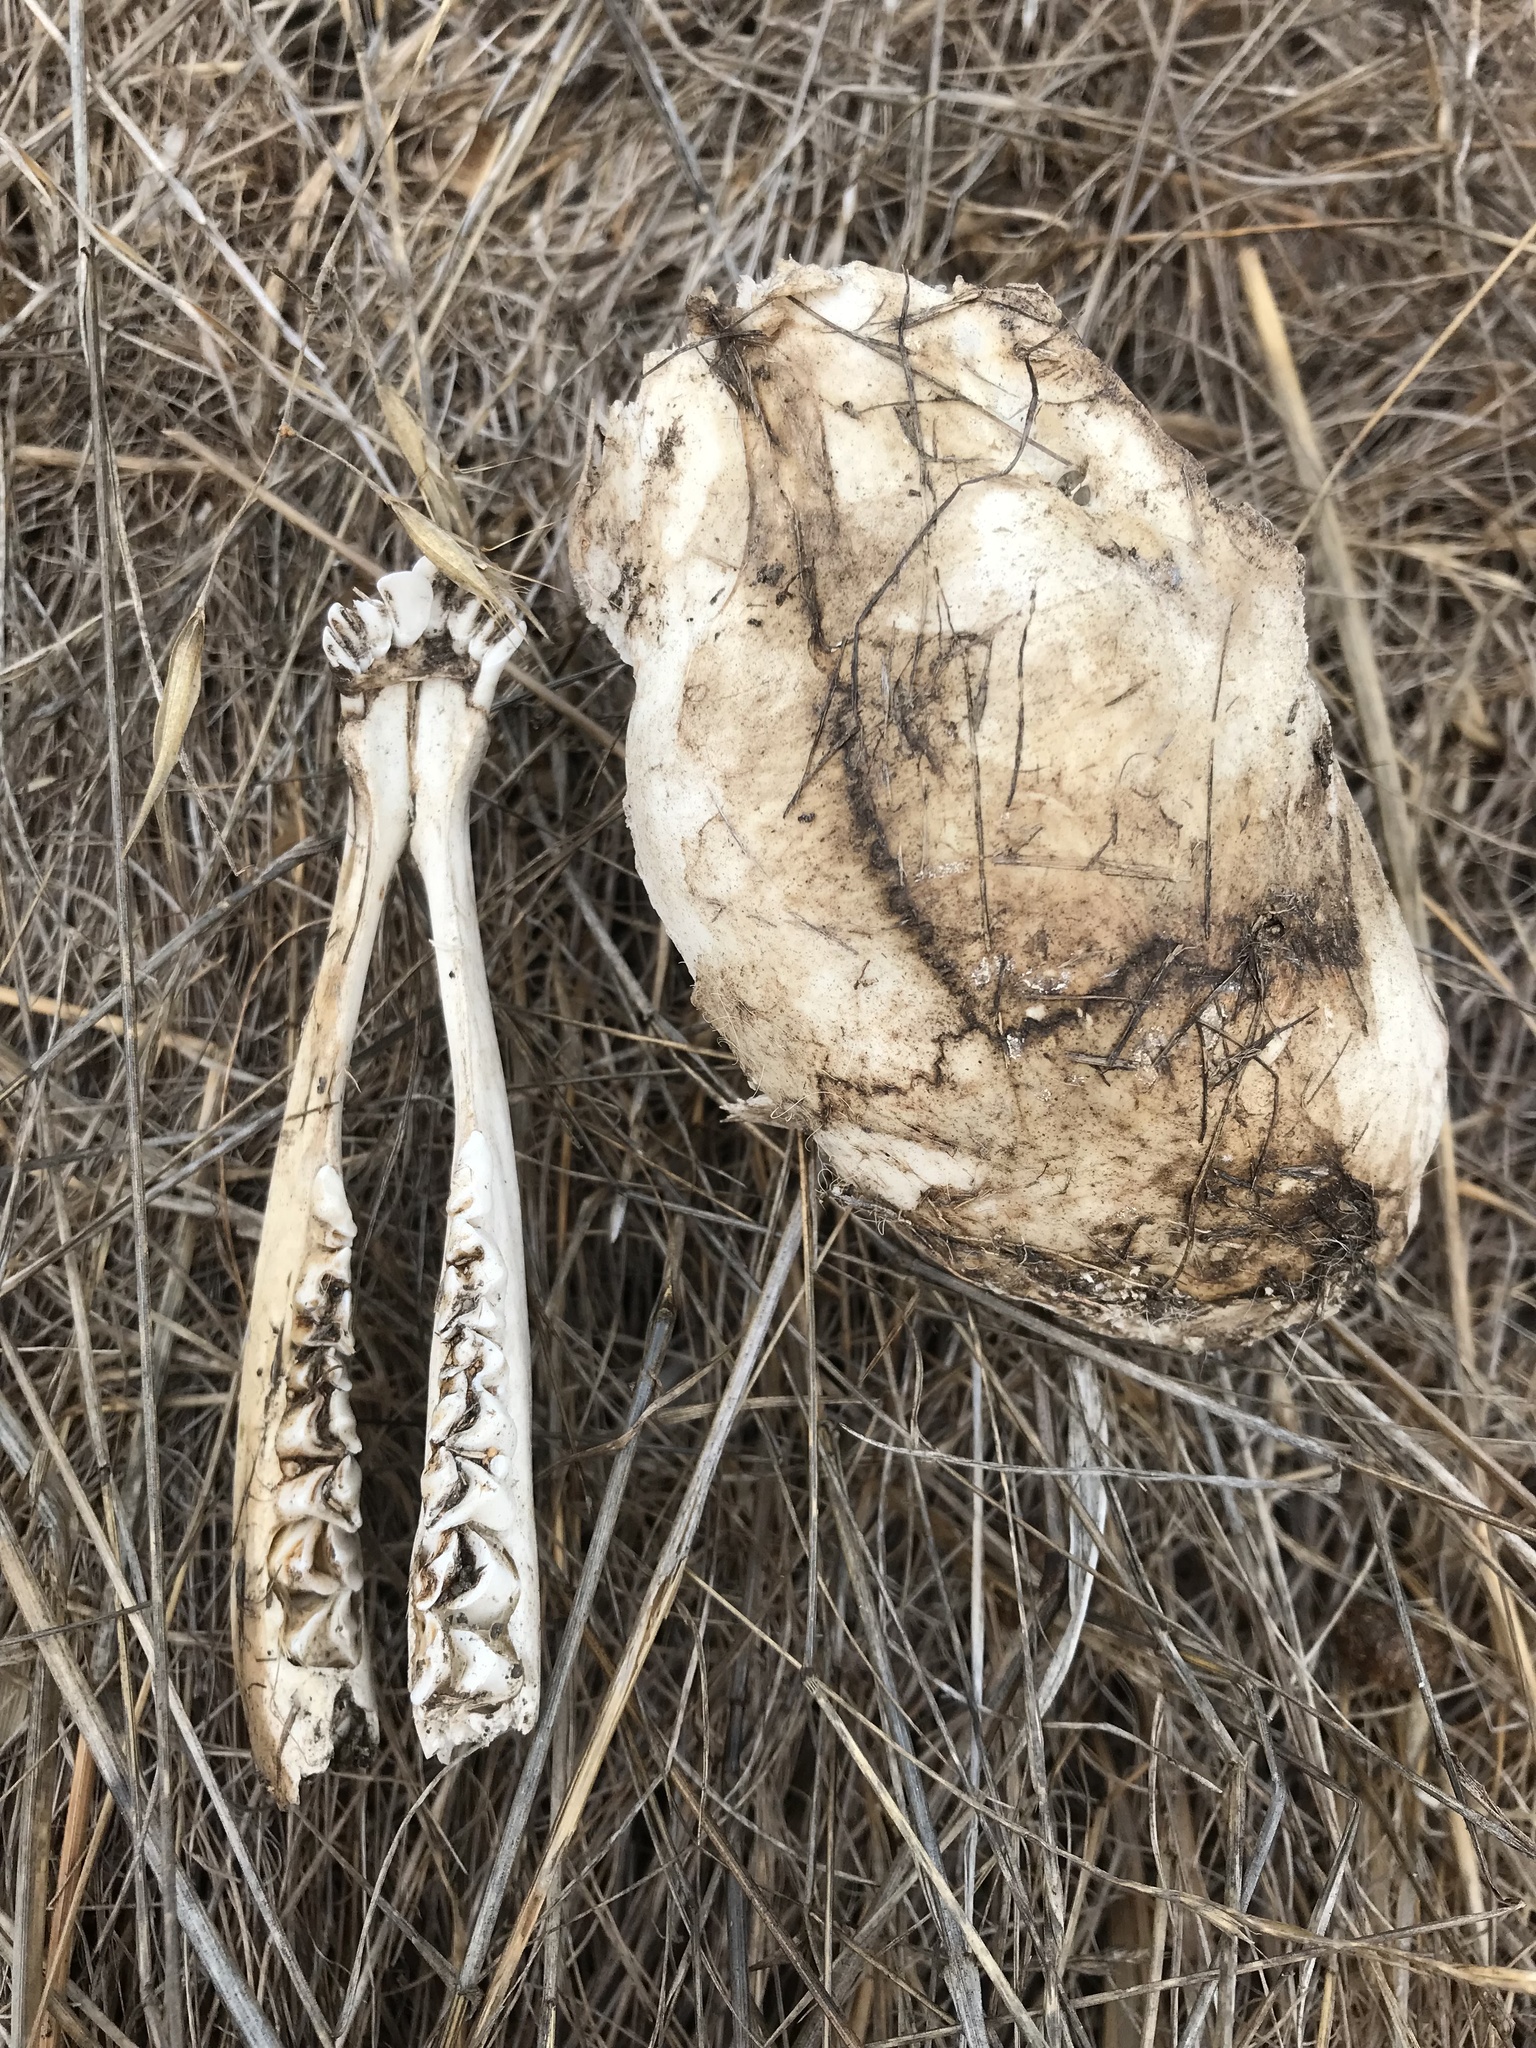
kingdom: Animalia
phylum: Chordata
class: Mammalia
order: Artiodactyla
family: Cervidae
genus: Odocoileus
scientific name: Odocoileus hemionus
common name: Mule deer
